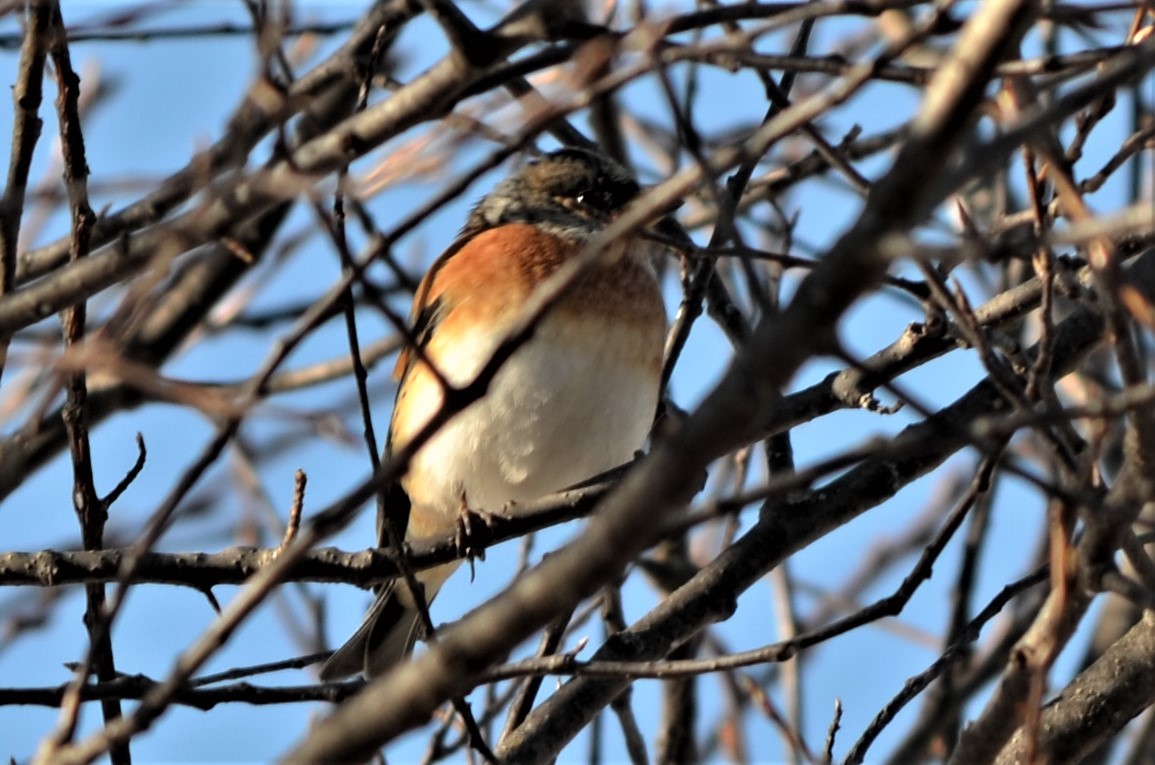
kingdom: Animalia
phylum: Chordata
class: Aves
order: Passeriformes
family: Fringillidae
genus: Fringilla
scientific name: Fringilla montifringilla
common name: Brambling
